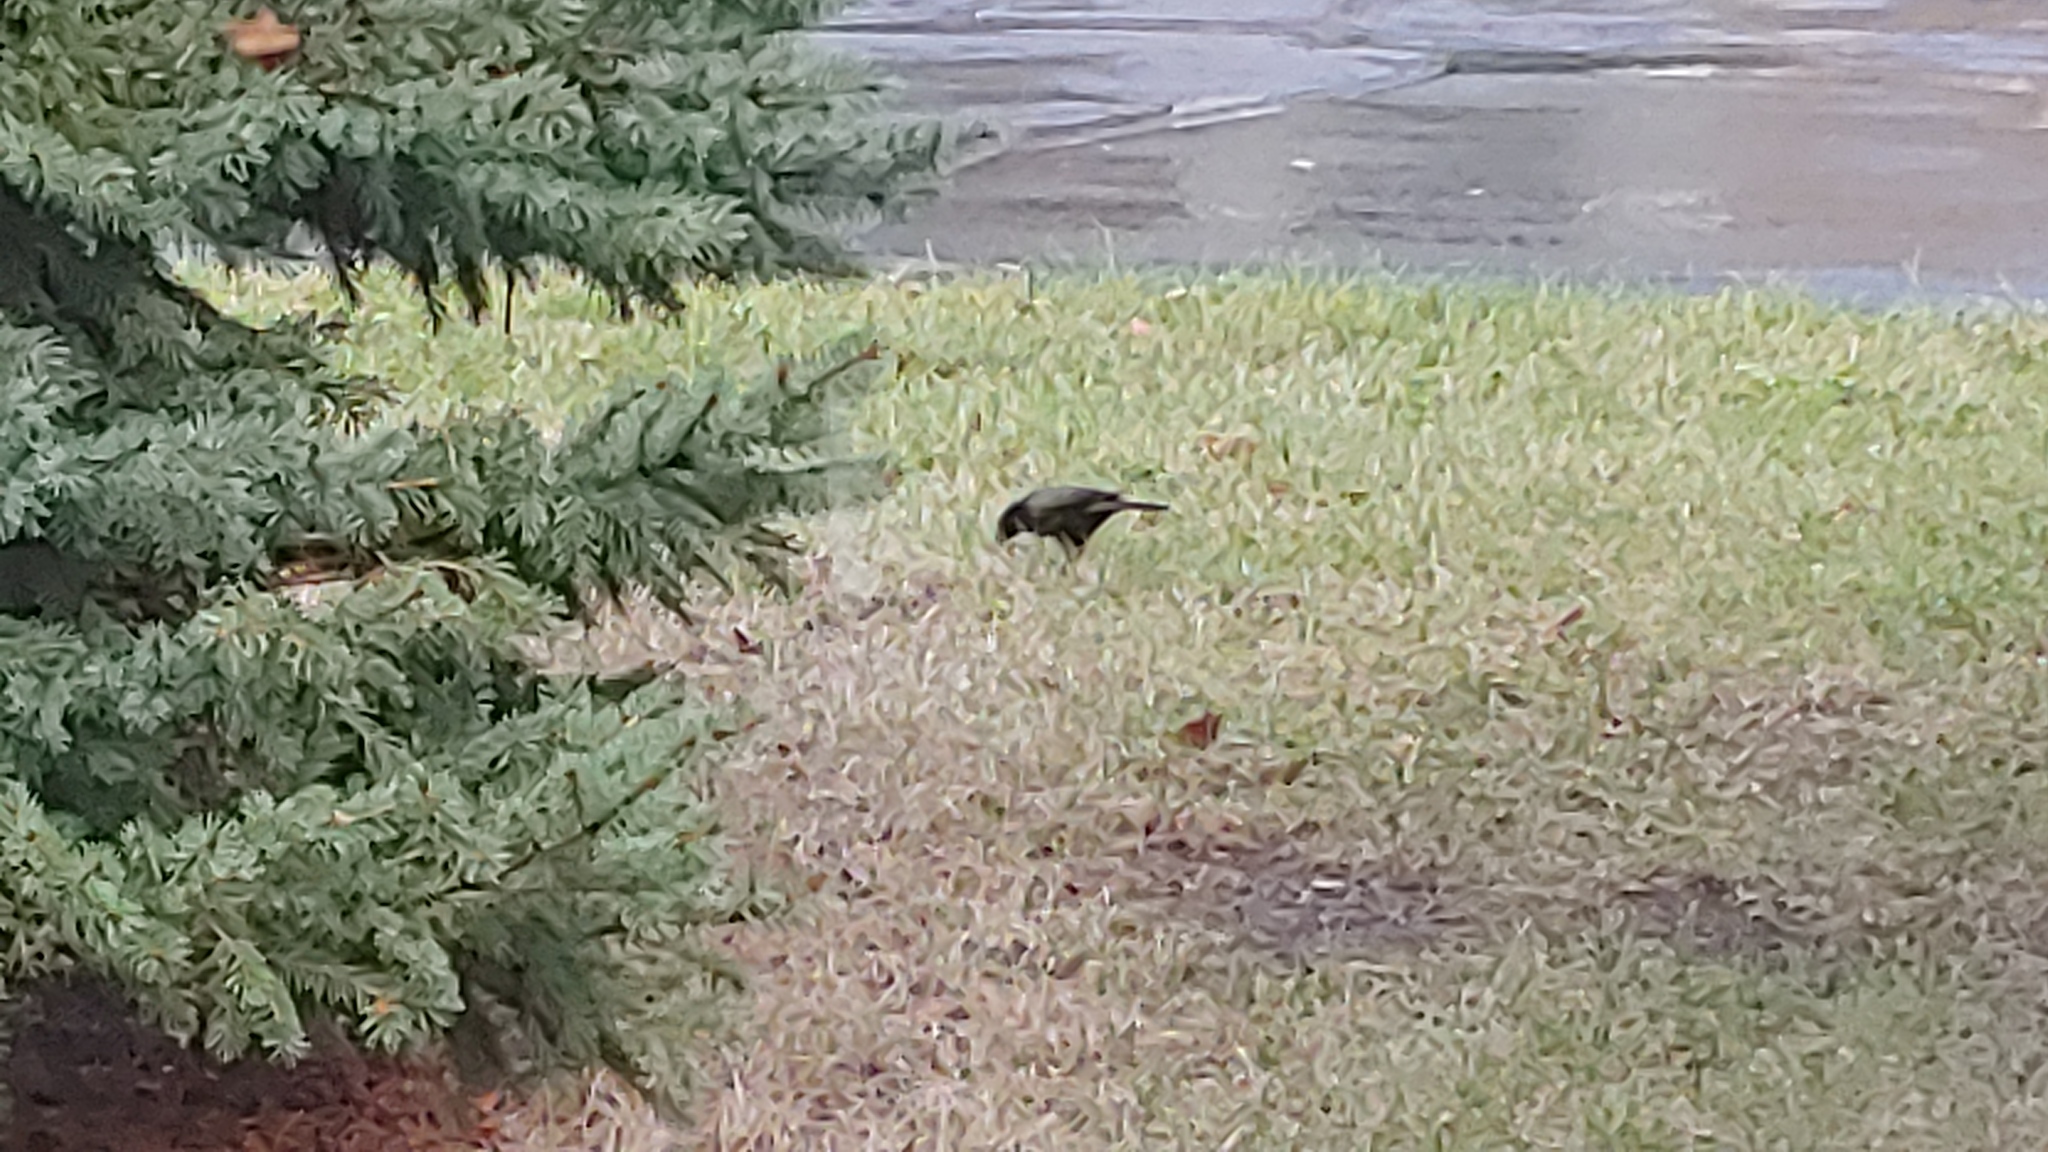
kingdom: Animalia
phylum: Chordata
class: Aves
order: Passeriformes
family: Icteridae
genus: Quiscalus
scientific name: Quiscalus quiscula
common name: Common grackle
